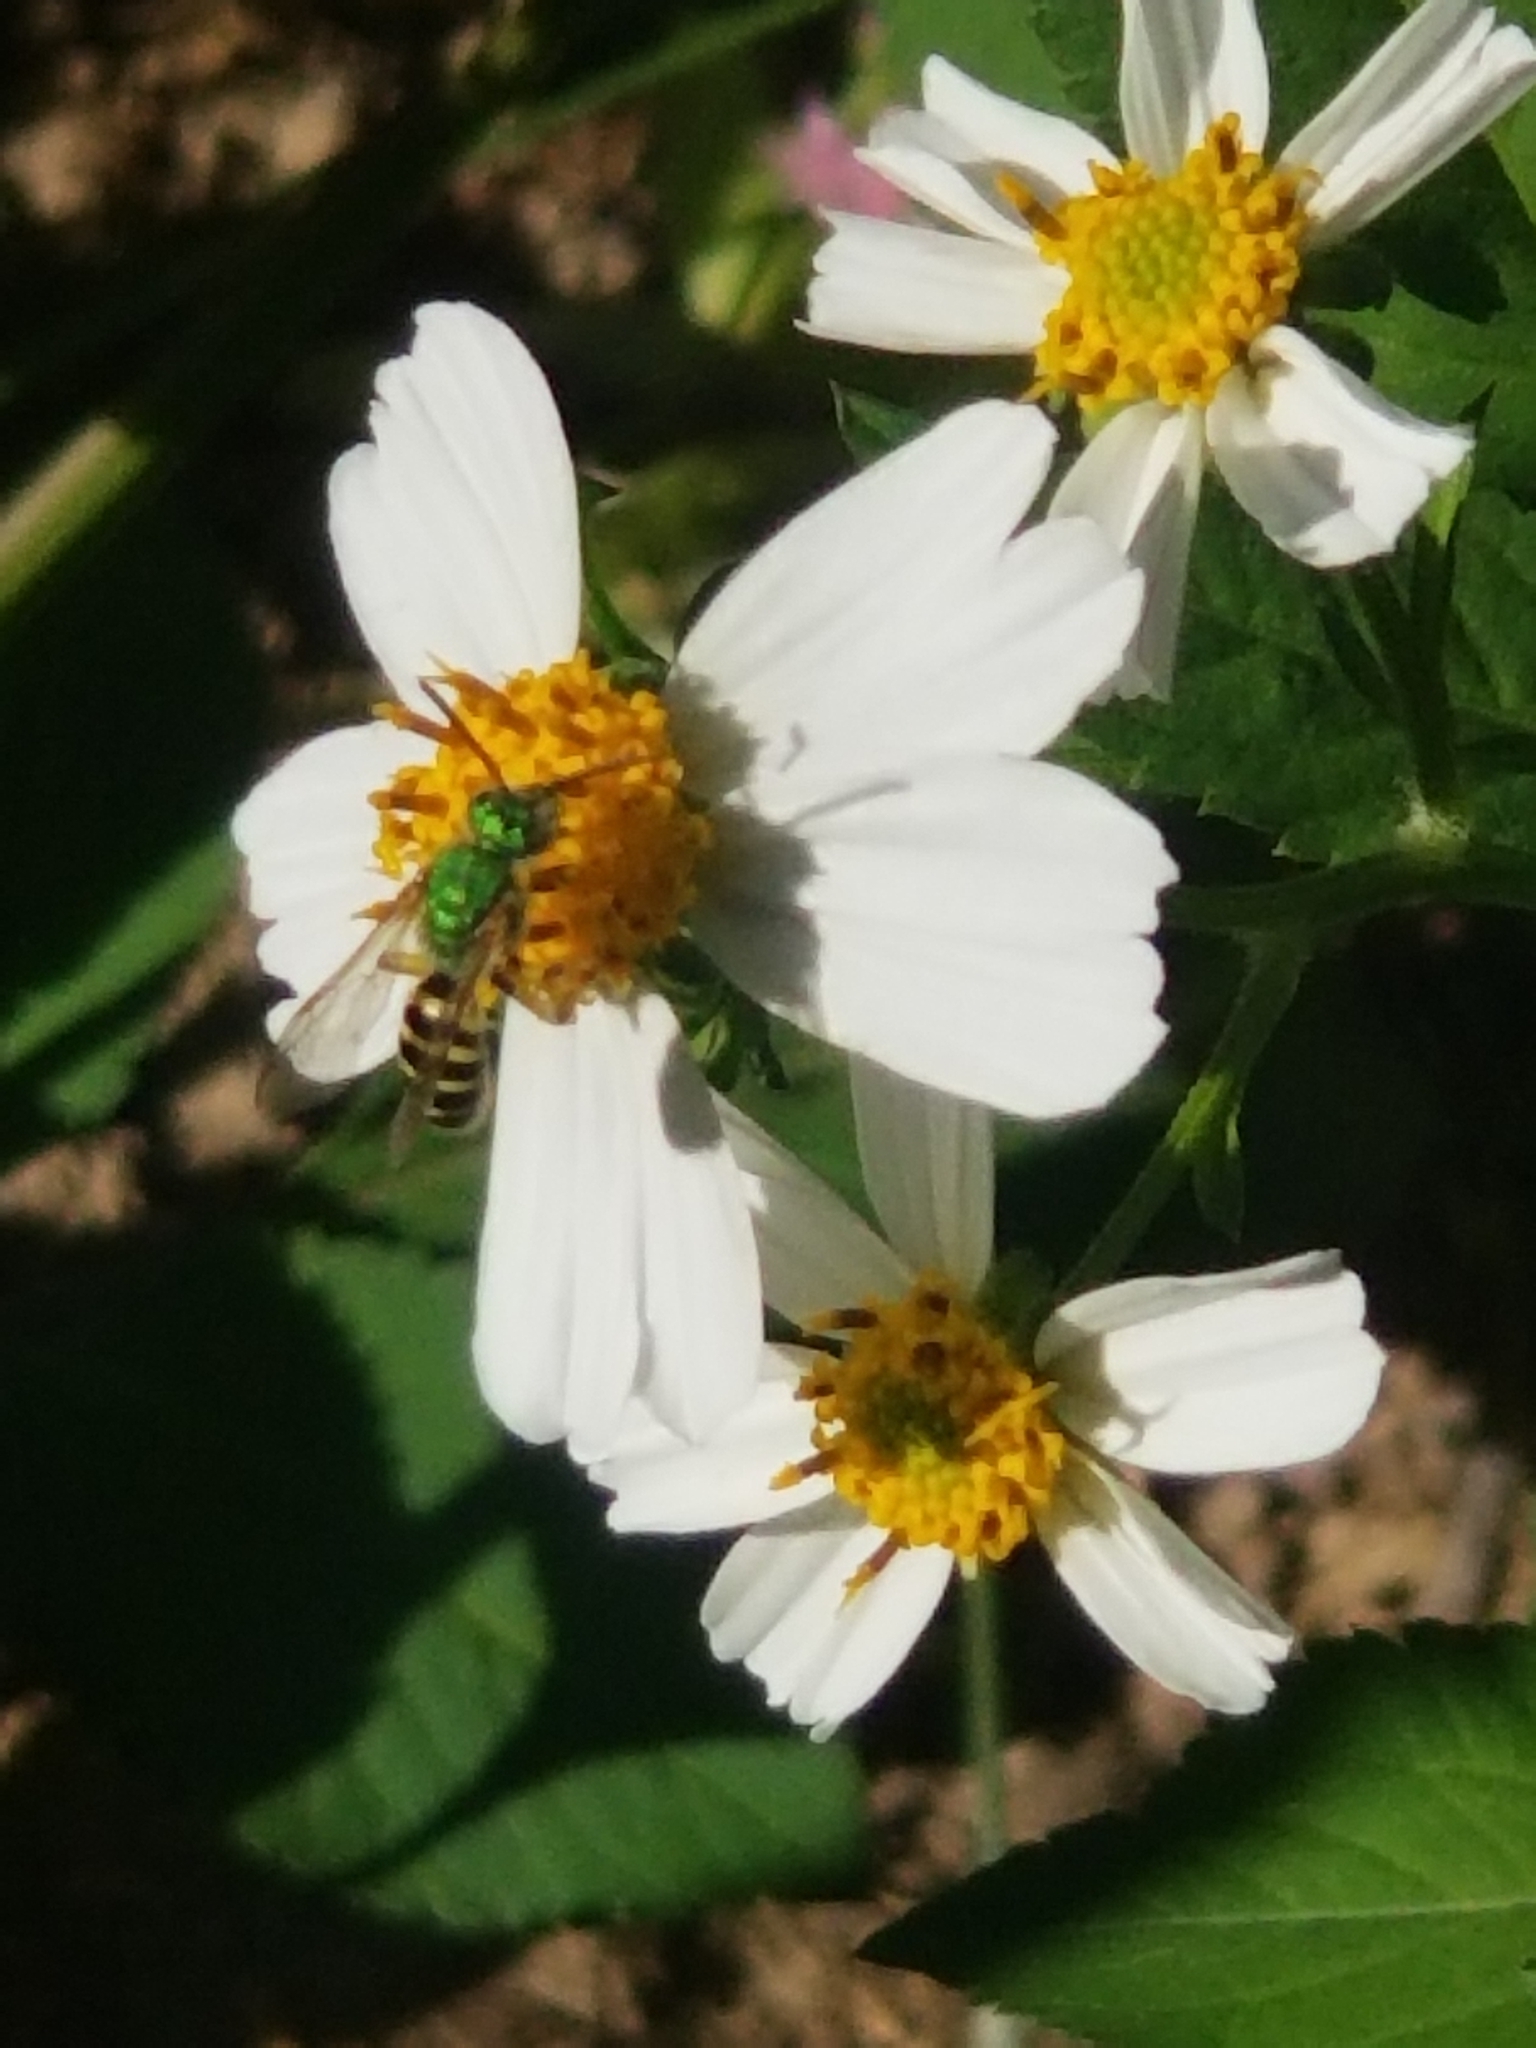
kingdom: Animalia
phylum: Arthropoda
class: Insecta
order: Hymenoptera
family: Halictidae
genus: Agapostemon
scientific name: Agapostemon
